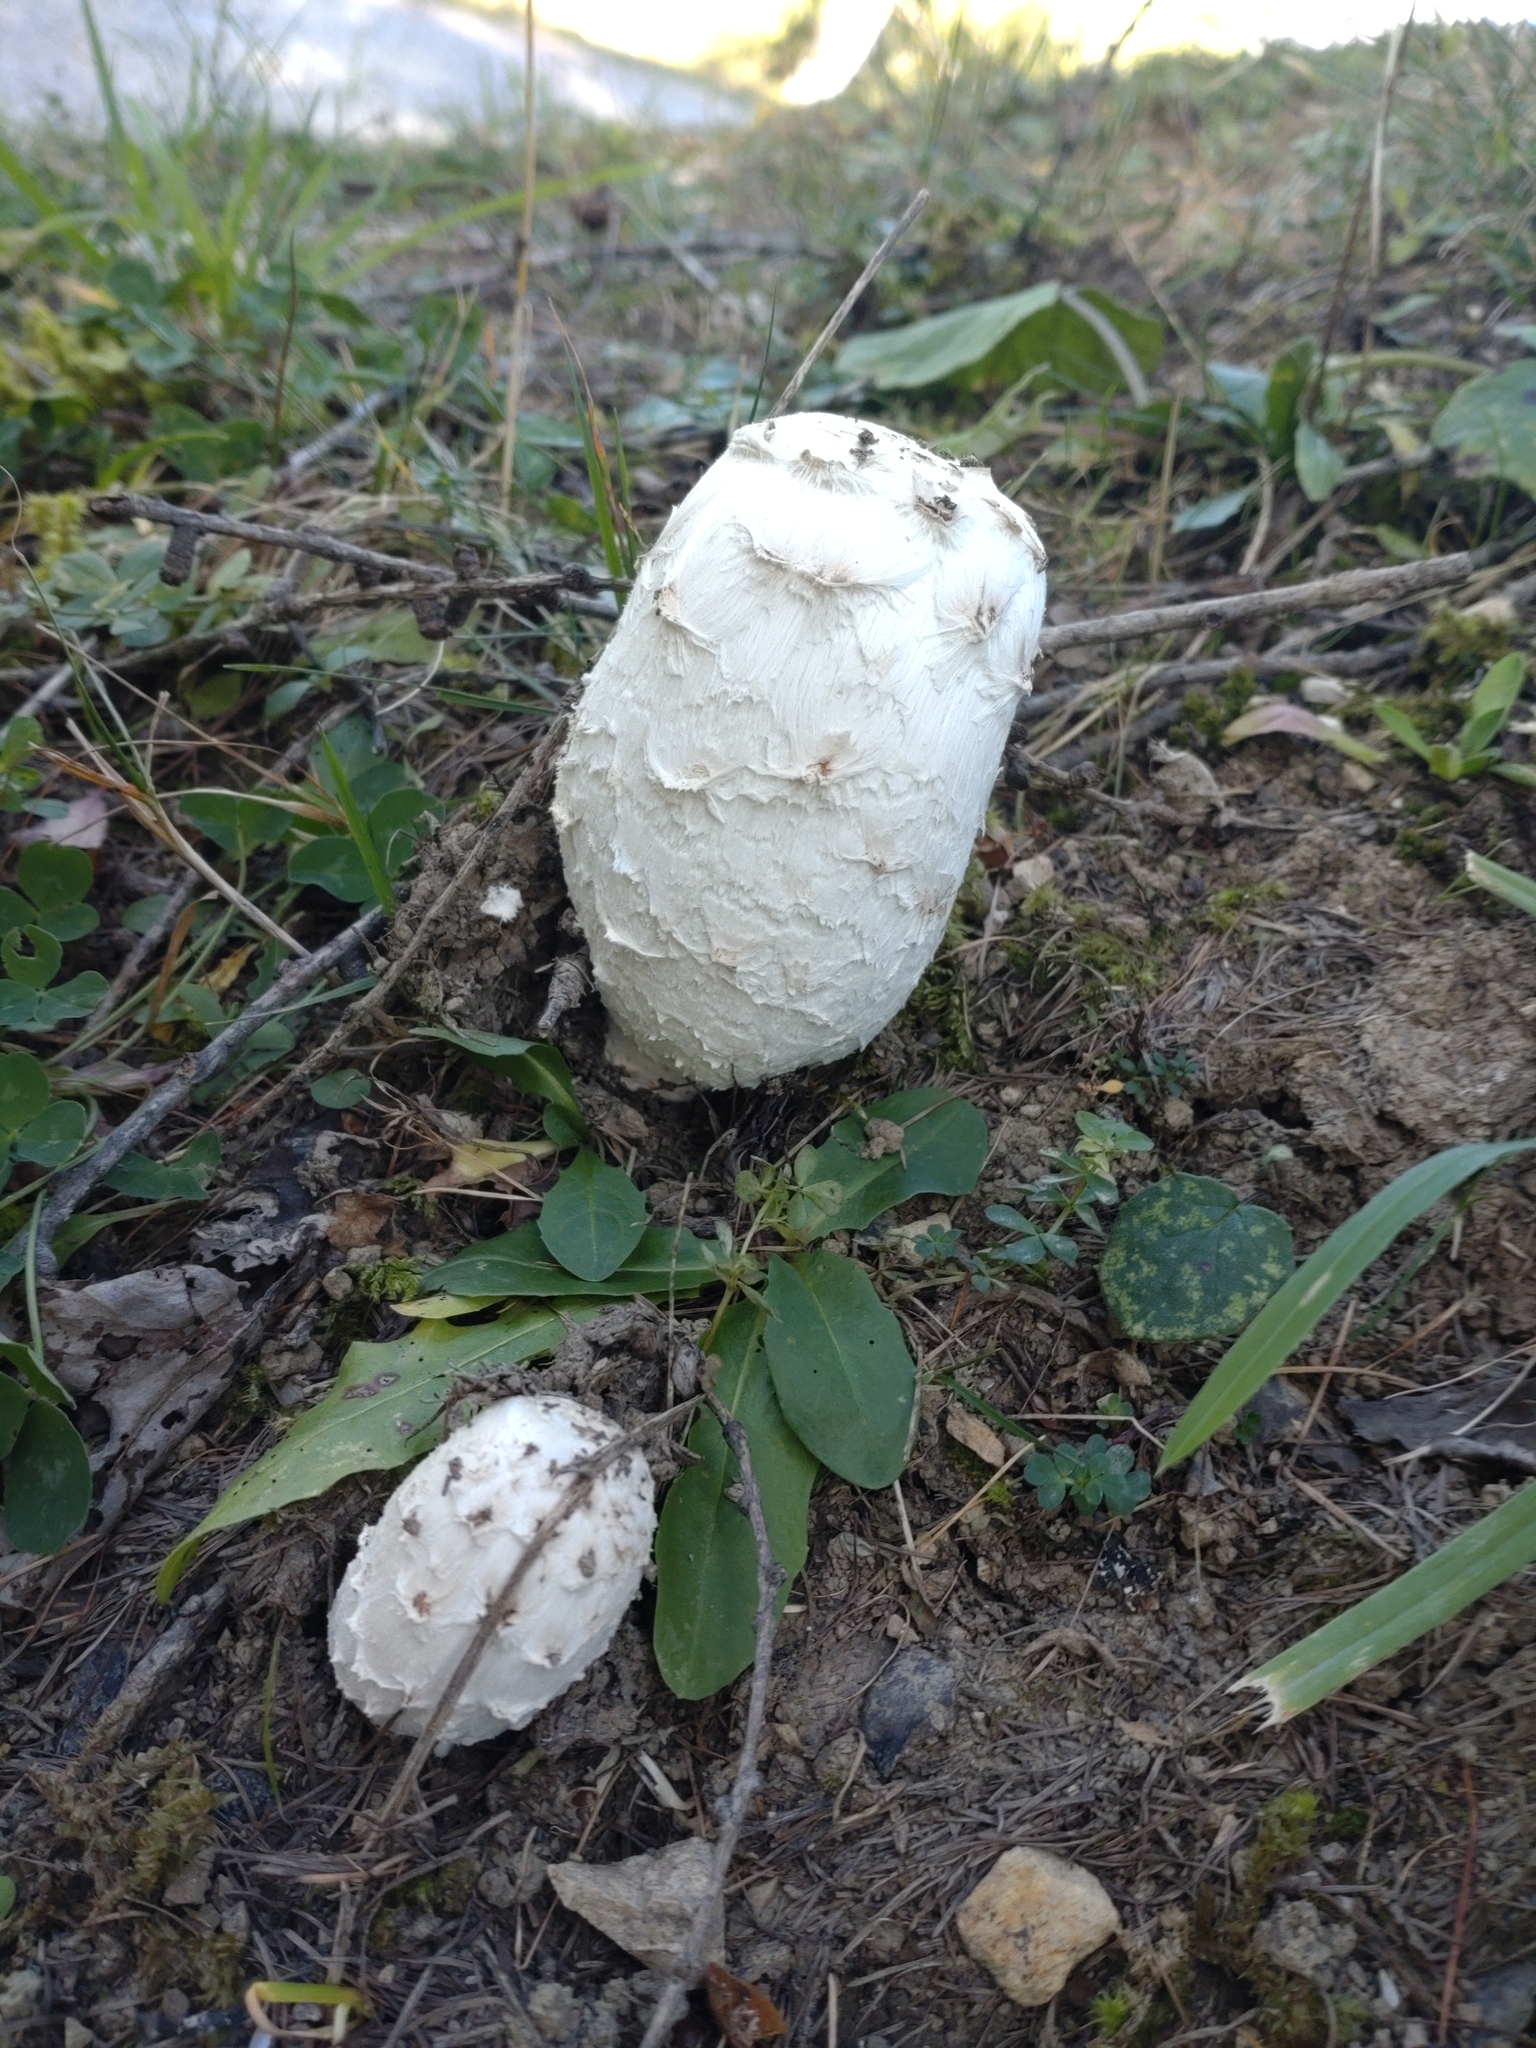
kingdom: Fungi
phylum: Basidiomycota
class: Agaricomycetes
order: Agaricales
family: Agaricaceae
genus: Coprinus
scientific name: Coprinus comatus
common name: Lawyer's wig
